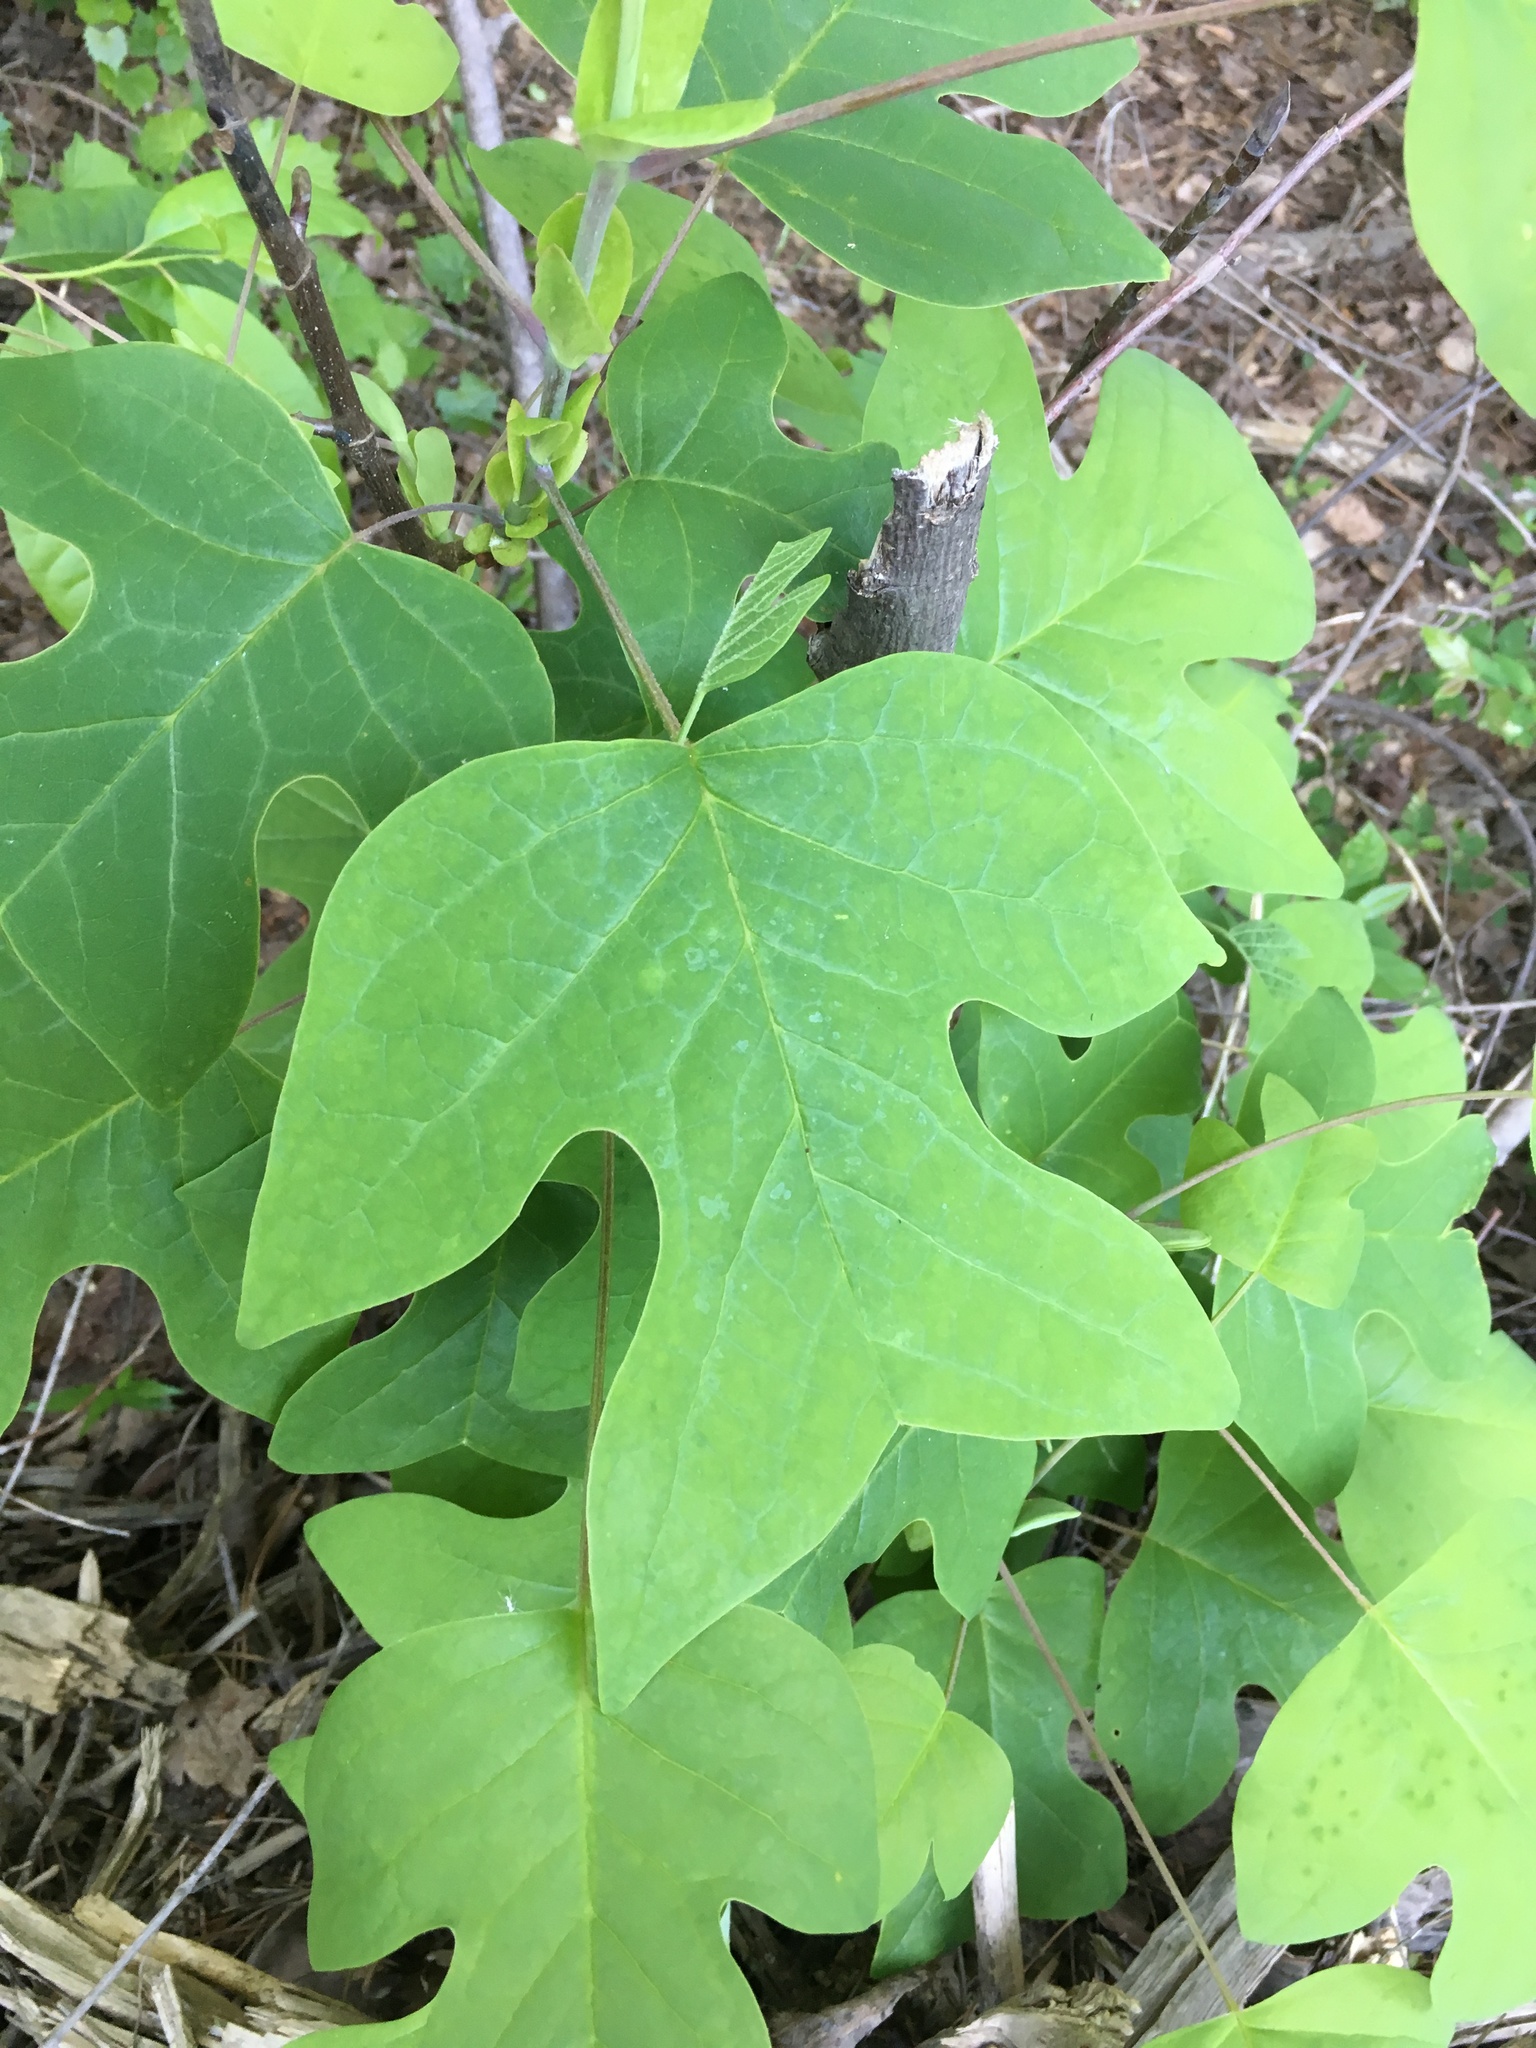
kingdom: Plantae
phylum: Tracheophyta
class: Magnoliopsida
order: Magnoliales
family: Magnoliaceae
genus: Liriodendron
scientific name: Liriodendron tulipifera
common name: Tulip tree
